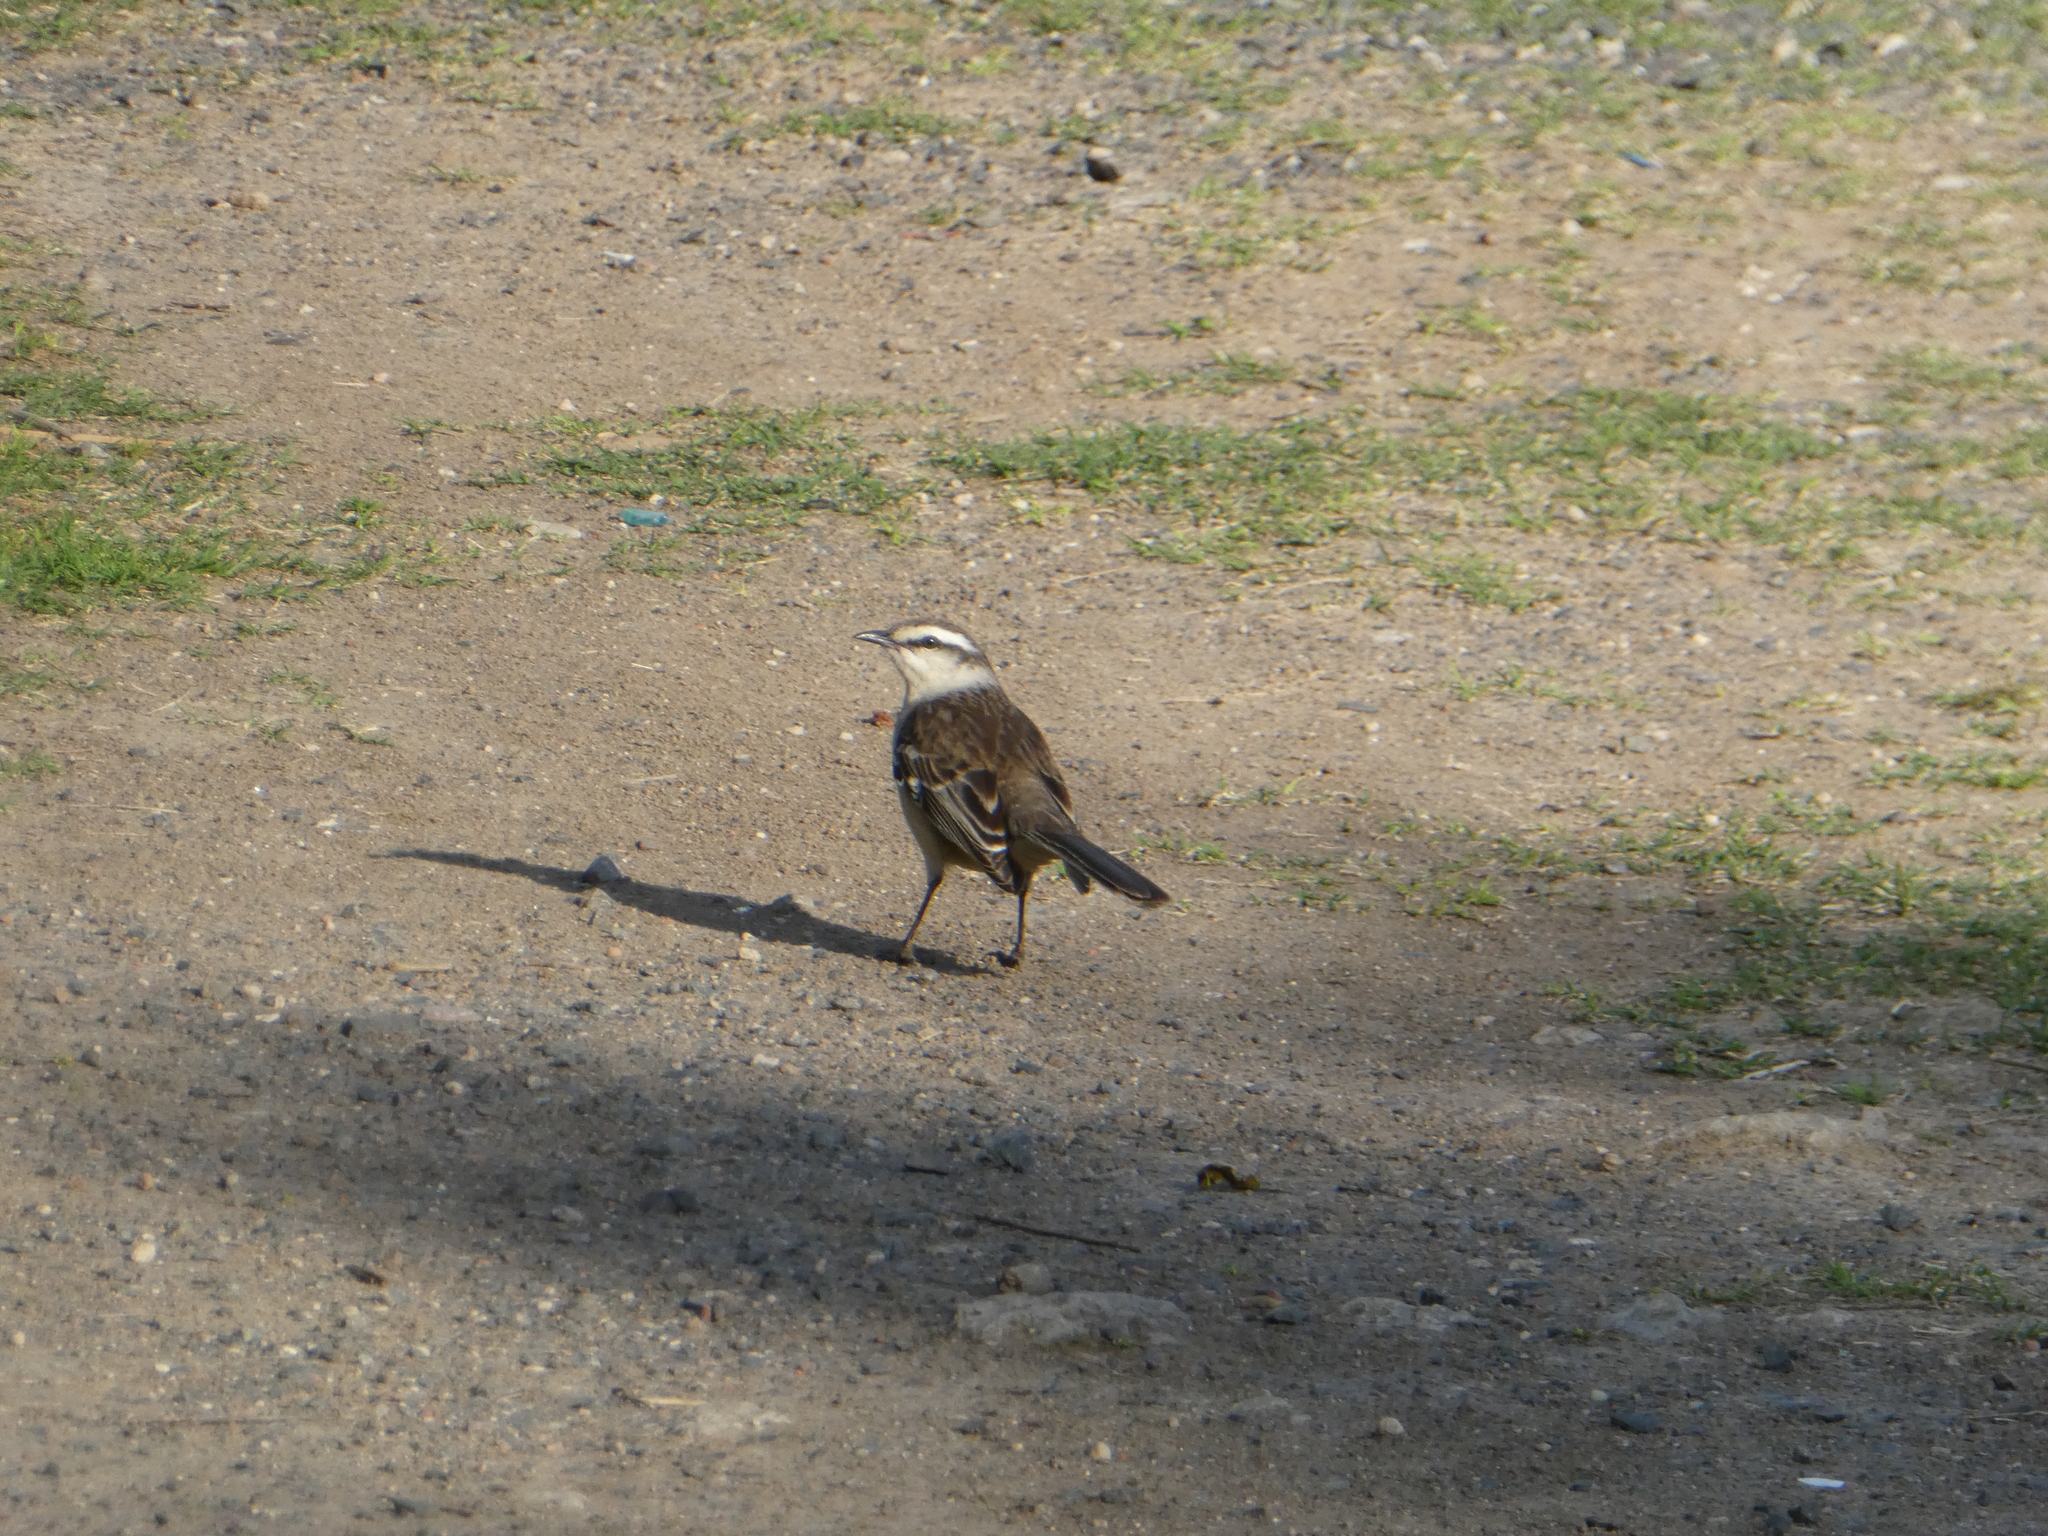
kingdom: Animalia
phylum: Chordata
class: Aves
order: Passeriformes
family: Mimidae
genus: Mimus
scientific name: Mimus saturninus
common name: Chalk-browed mockingbird
